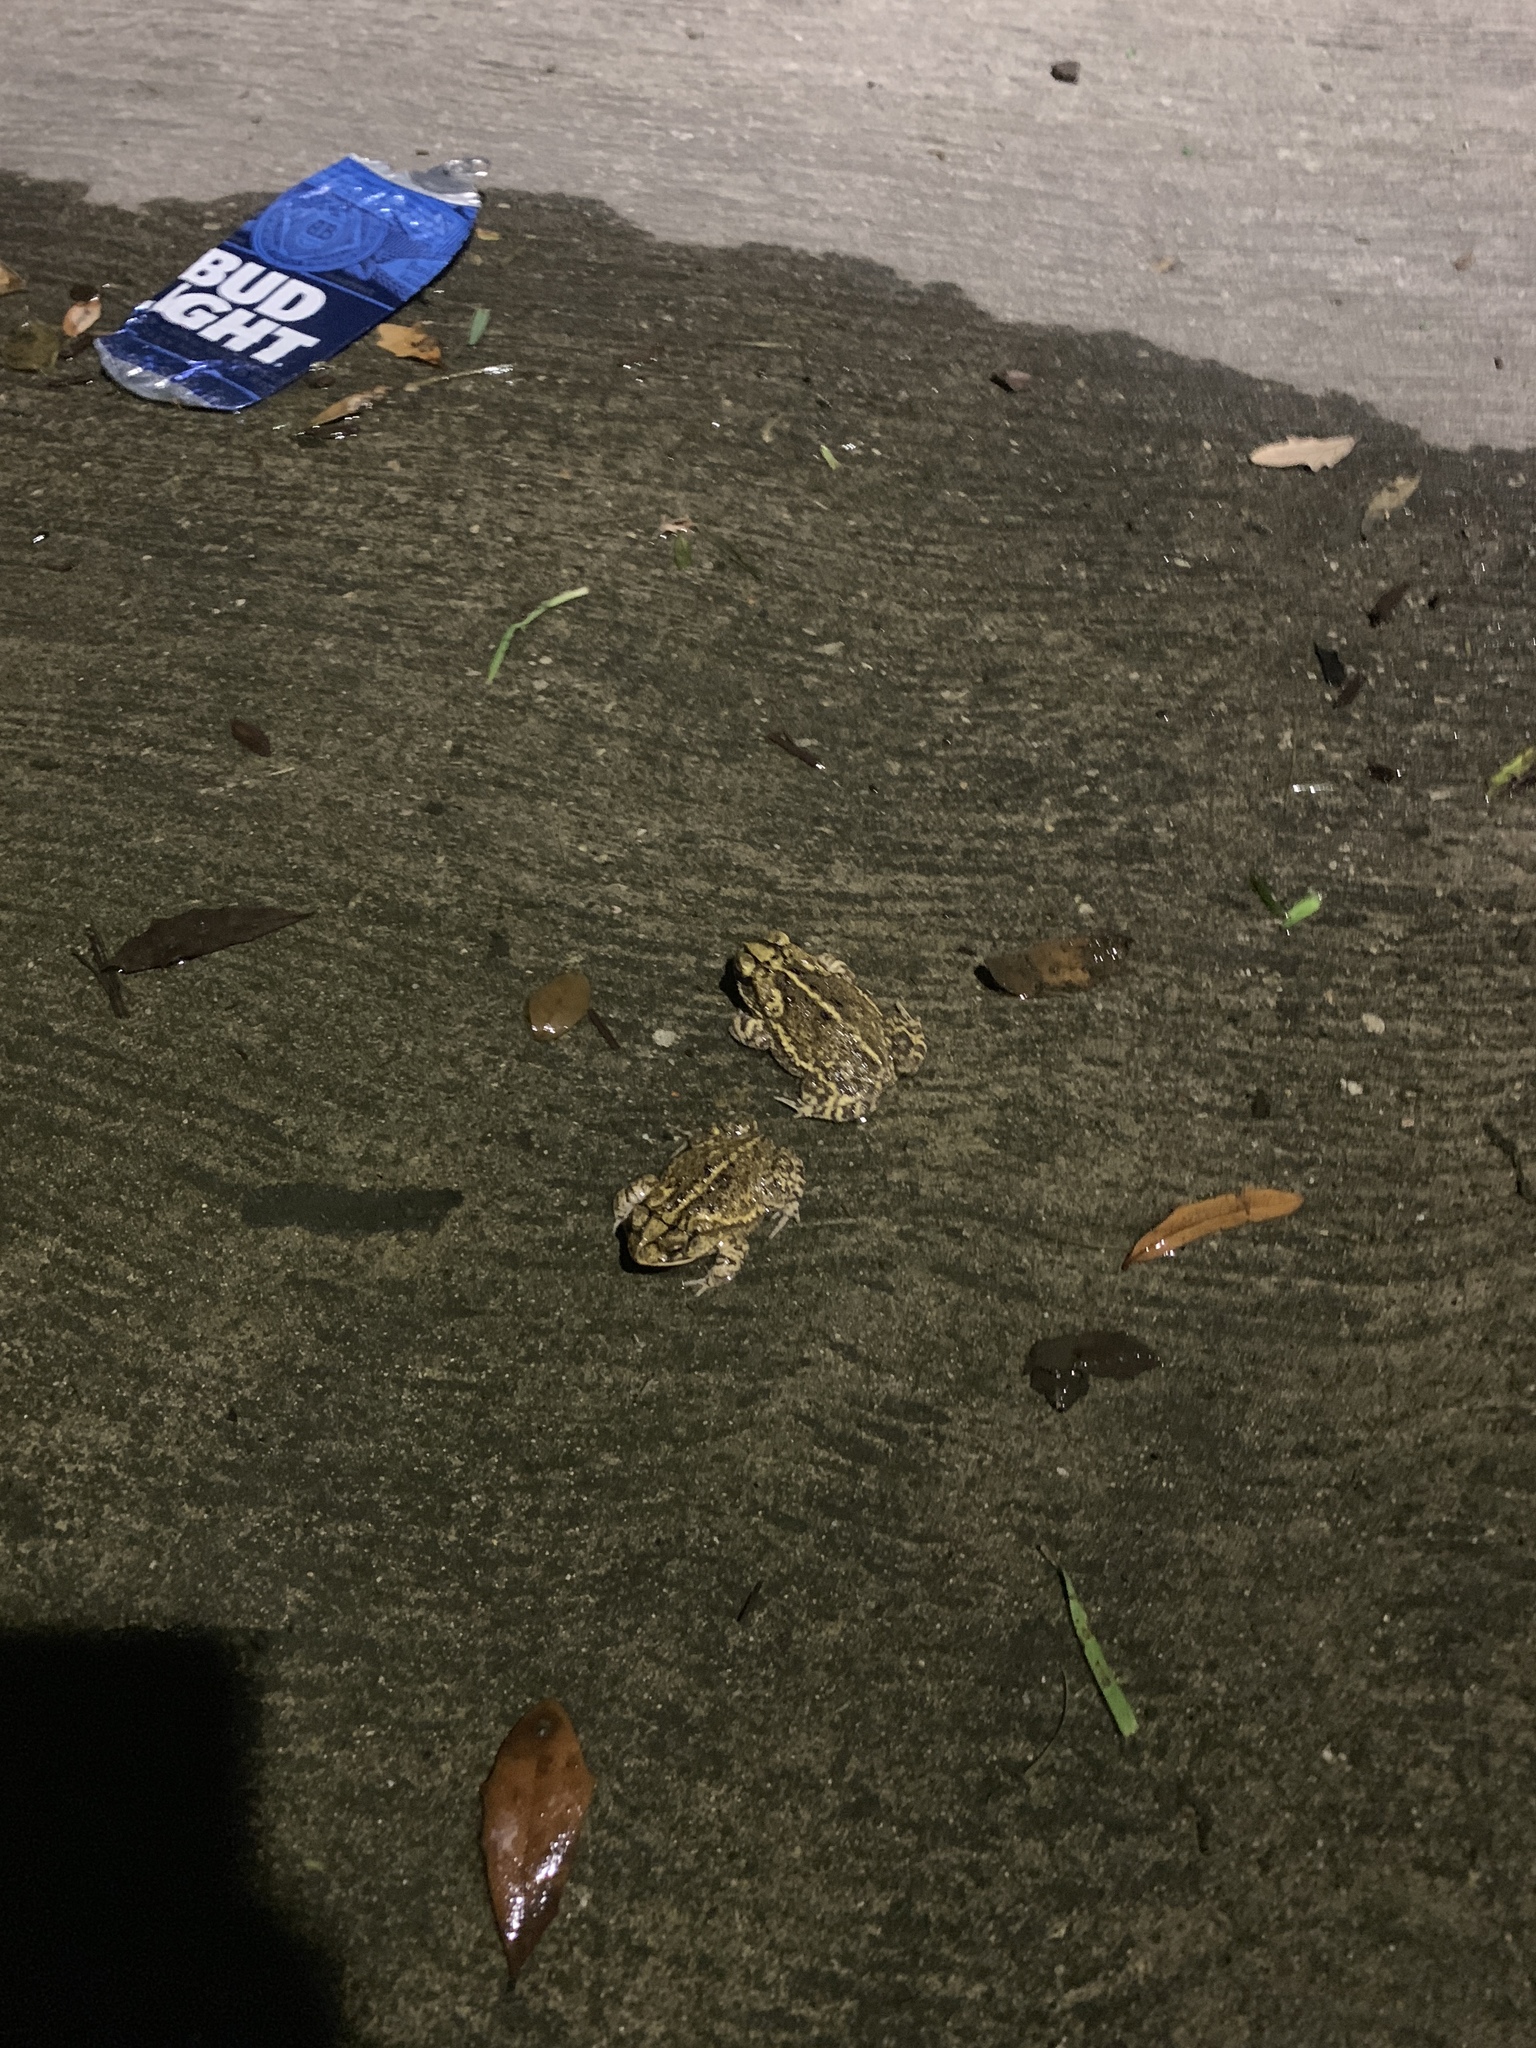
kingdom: Animalia
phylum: Chordata
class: Amphibia
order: Anura
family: Bufonidae
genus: Incilius
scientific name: Incilius nebulifer
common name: Gulf coast toad
